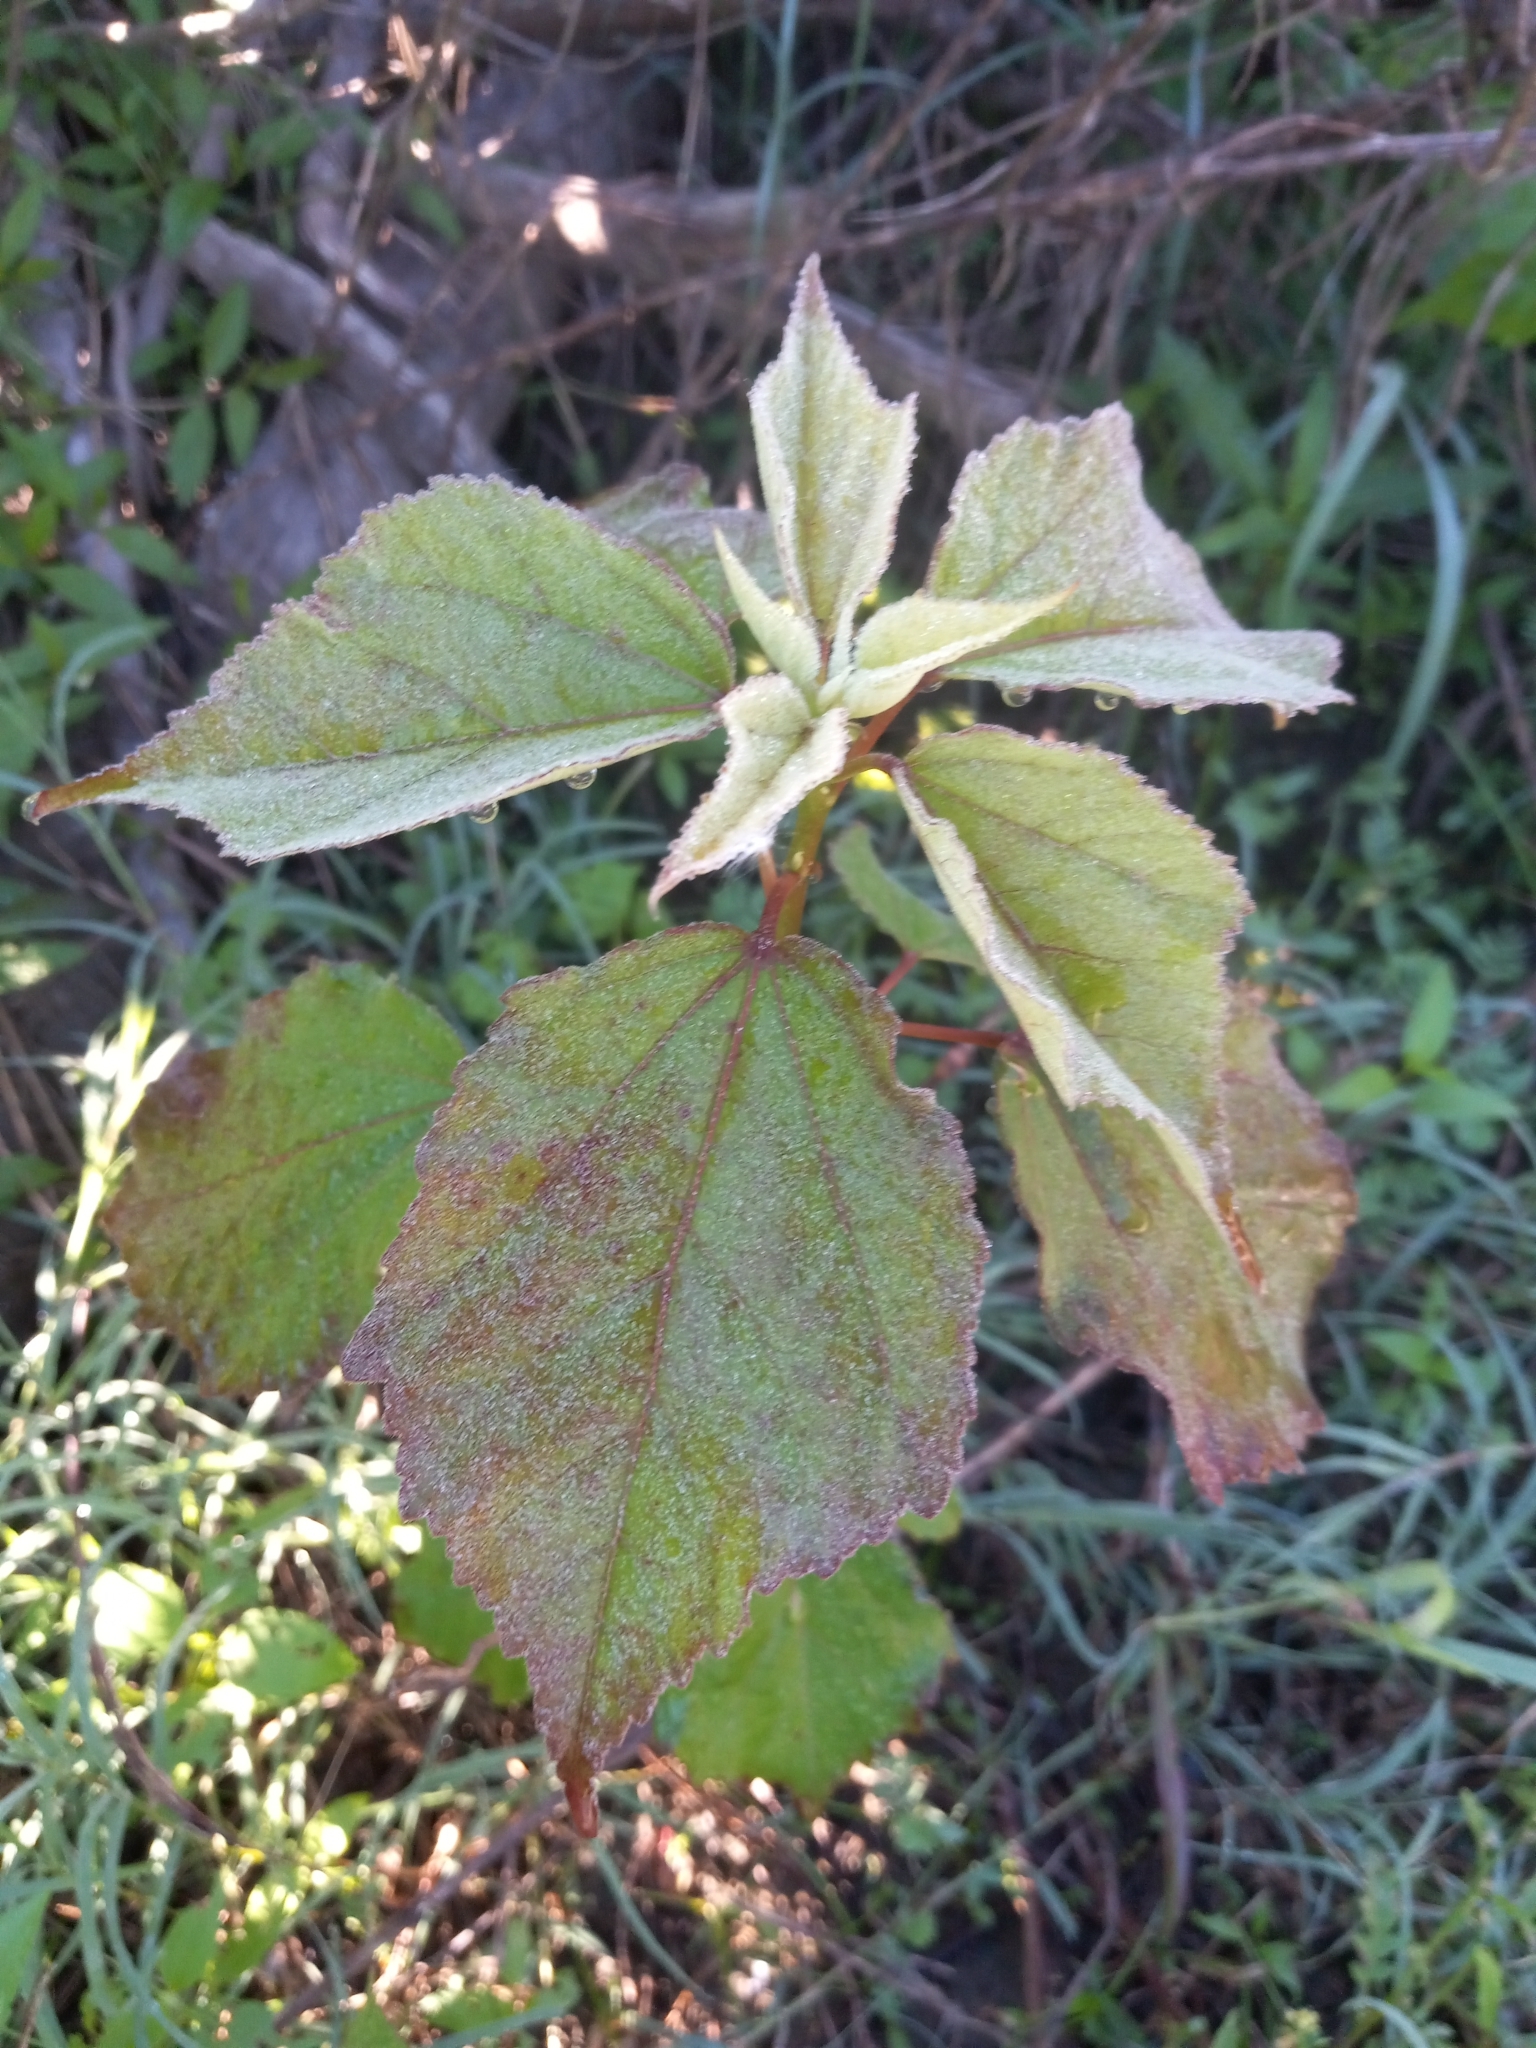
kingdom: Plantae
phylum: Tracheophyta
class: Magnoliopsida
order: Malvales
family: Malvaceae
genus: Hibiscus
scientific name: Hibiscus moscheutos
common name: Common rose-mallow
